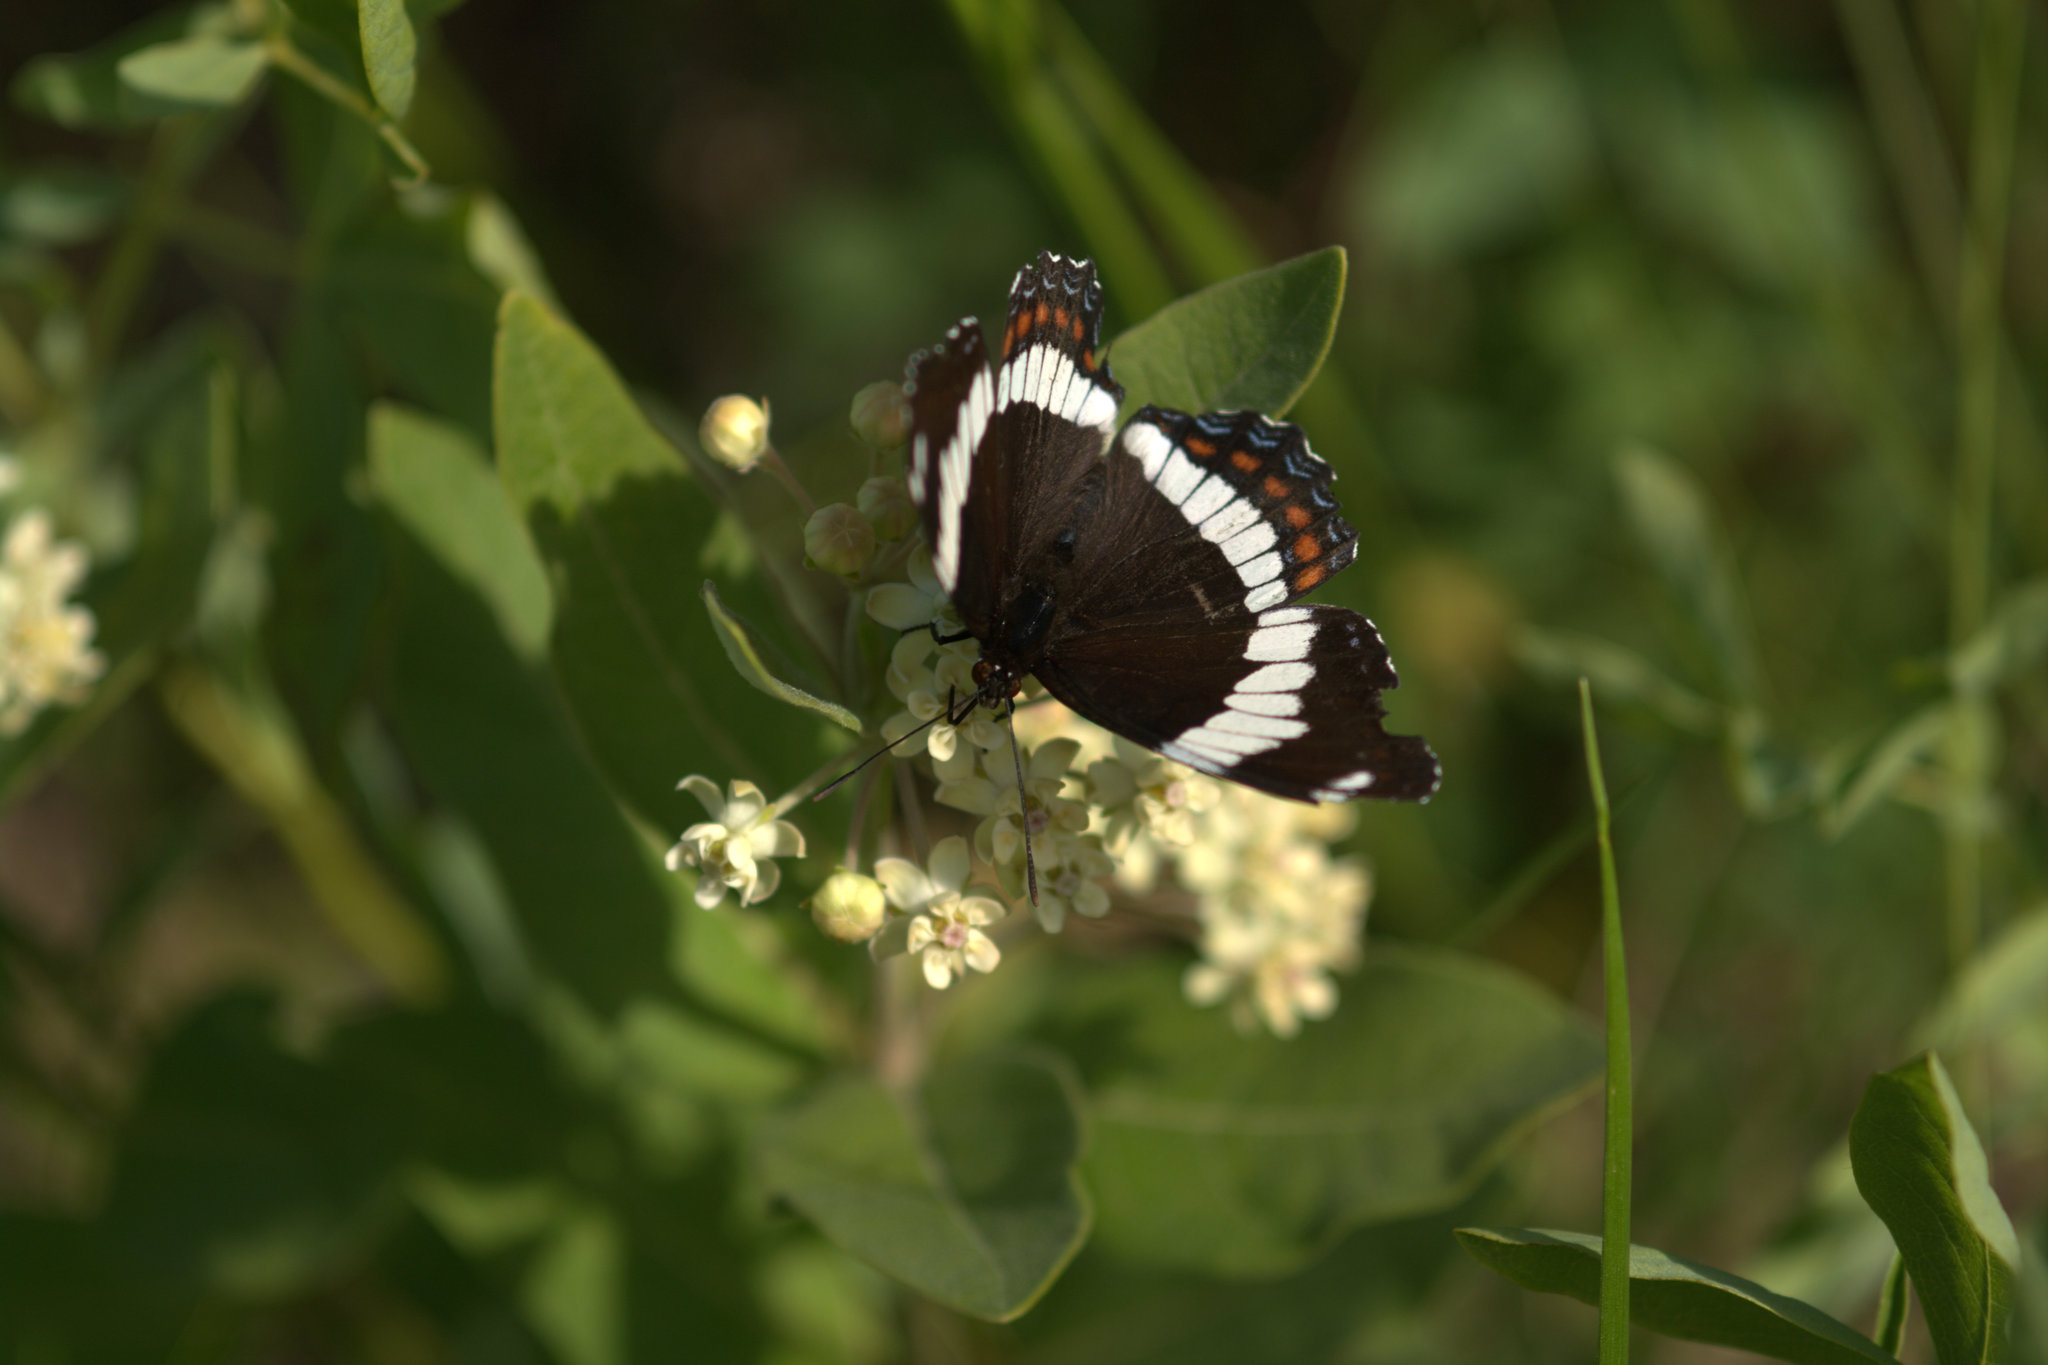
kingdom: Animalia
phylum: Arthropoda
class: Insecta
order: Lepidoptera
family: Nymphalidae
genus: Limenitis
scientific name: Limenitis arthemis
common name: Red-spotted admiral
